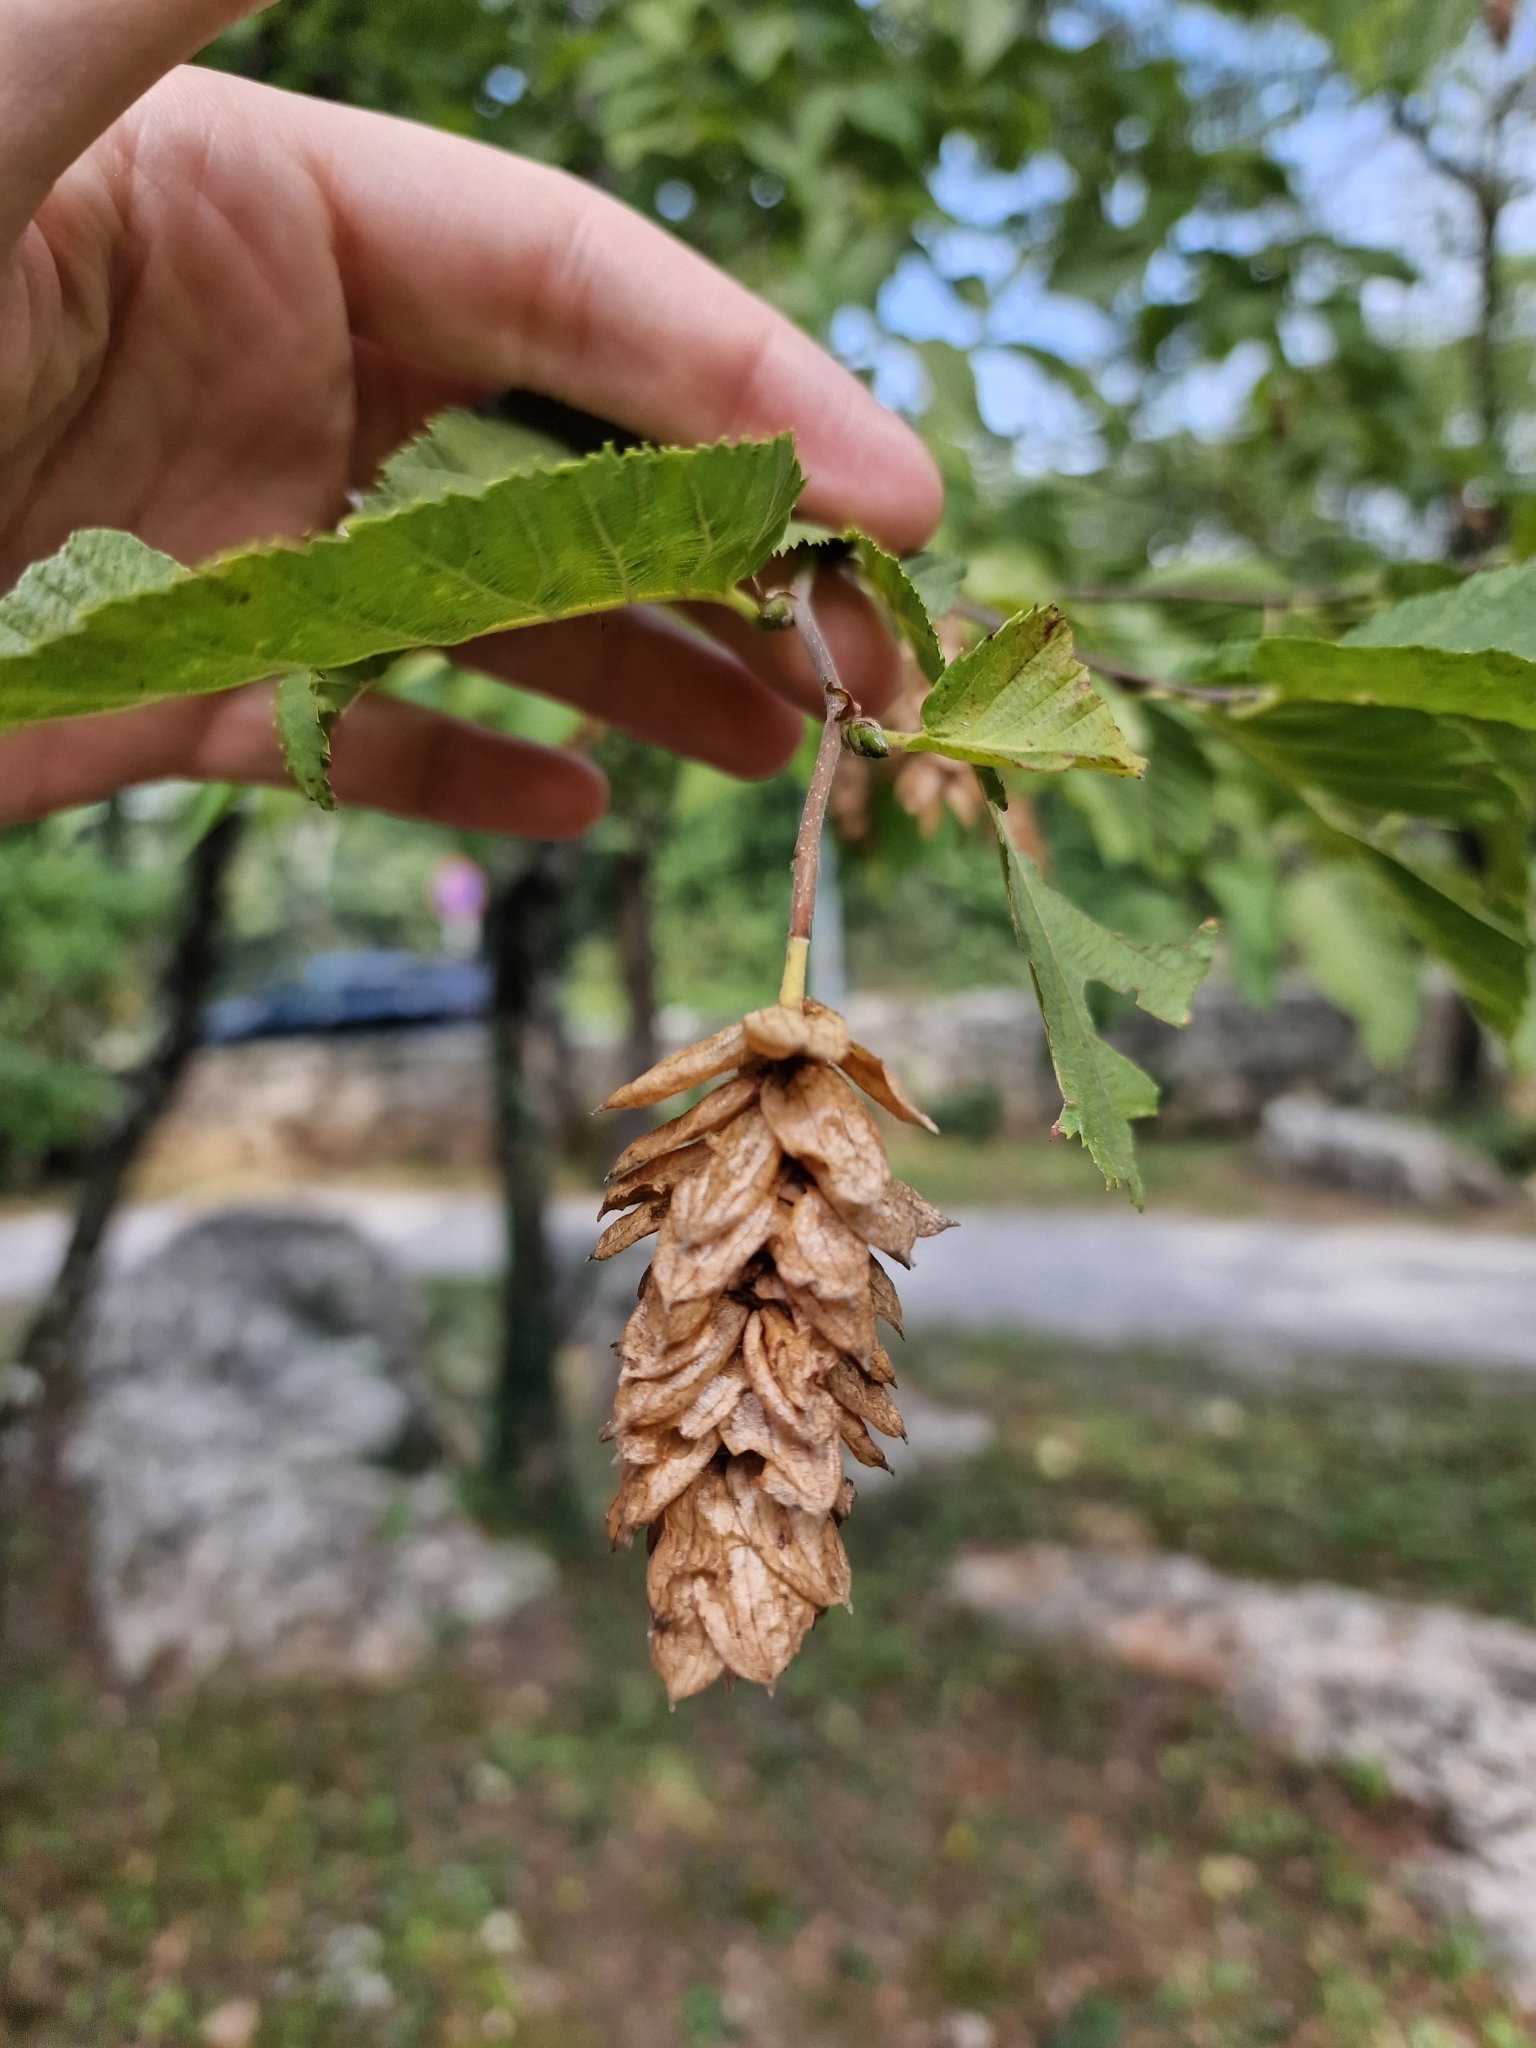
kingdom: Plantae
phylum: Tracheophyta
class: Magnoliopsida
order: Fagales
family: Betulaceae
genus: Ostrya
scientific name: Ostrya carpinifolia
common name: European hop-hornbeam
